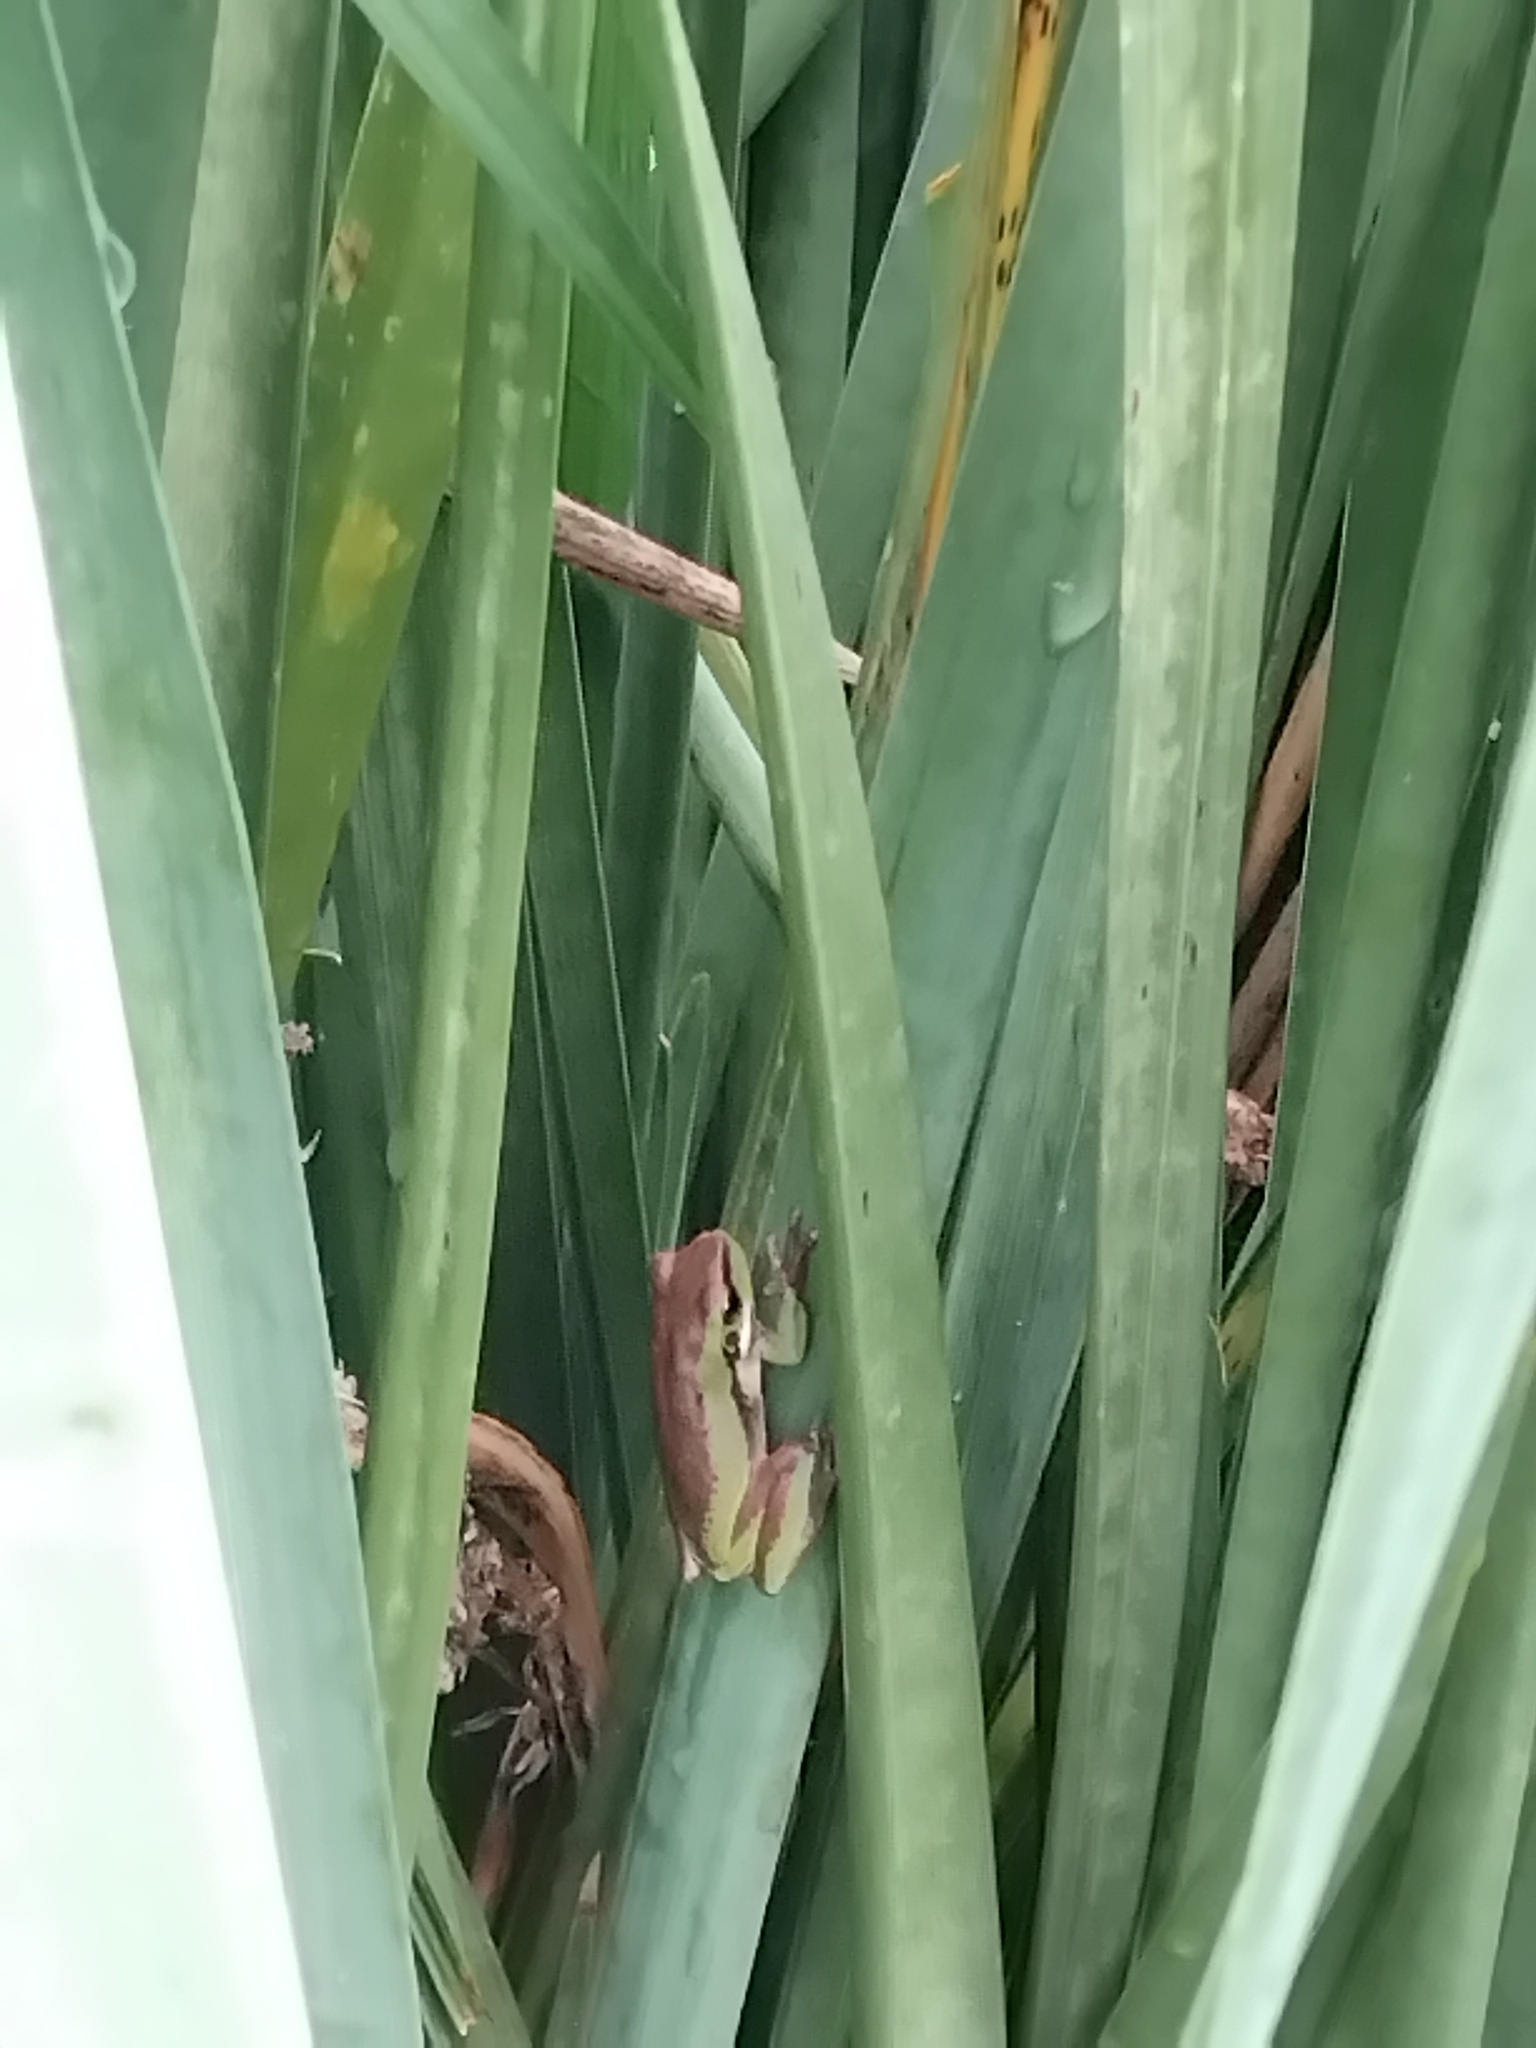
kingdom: Animalia
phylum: Chordata
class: Amphibia
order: Anura
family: Pelodryadidae
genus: Litoria
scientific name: Litoria fallax
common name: Eastern dwarf treefrog
